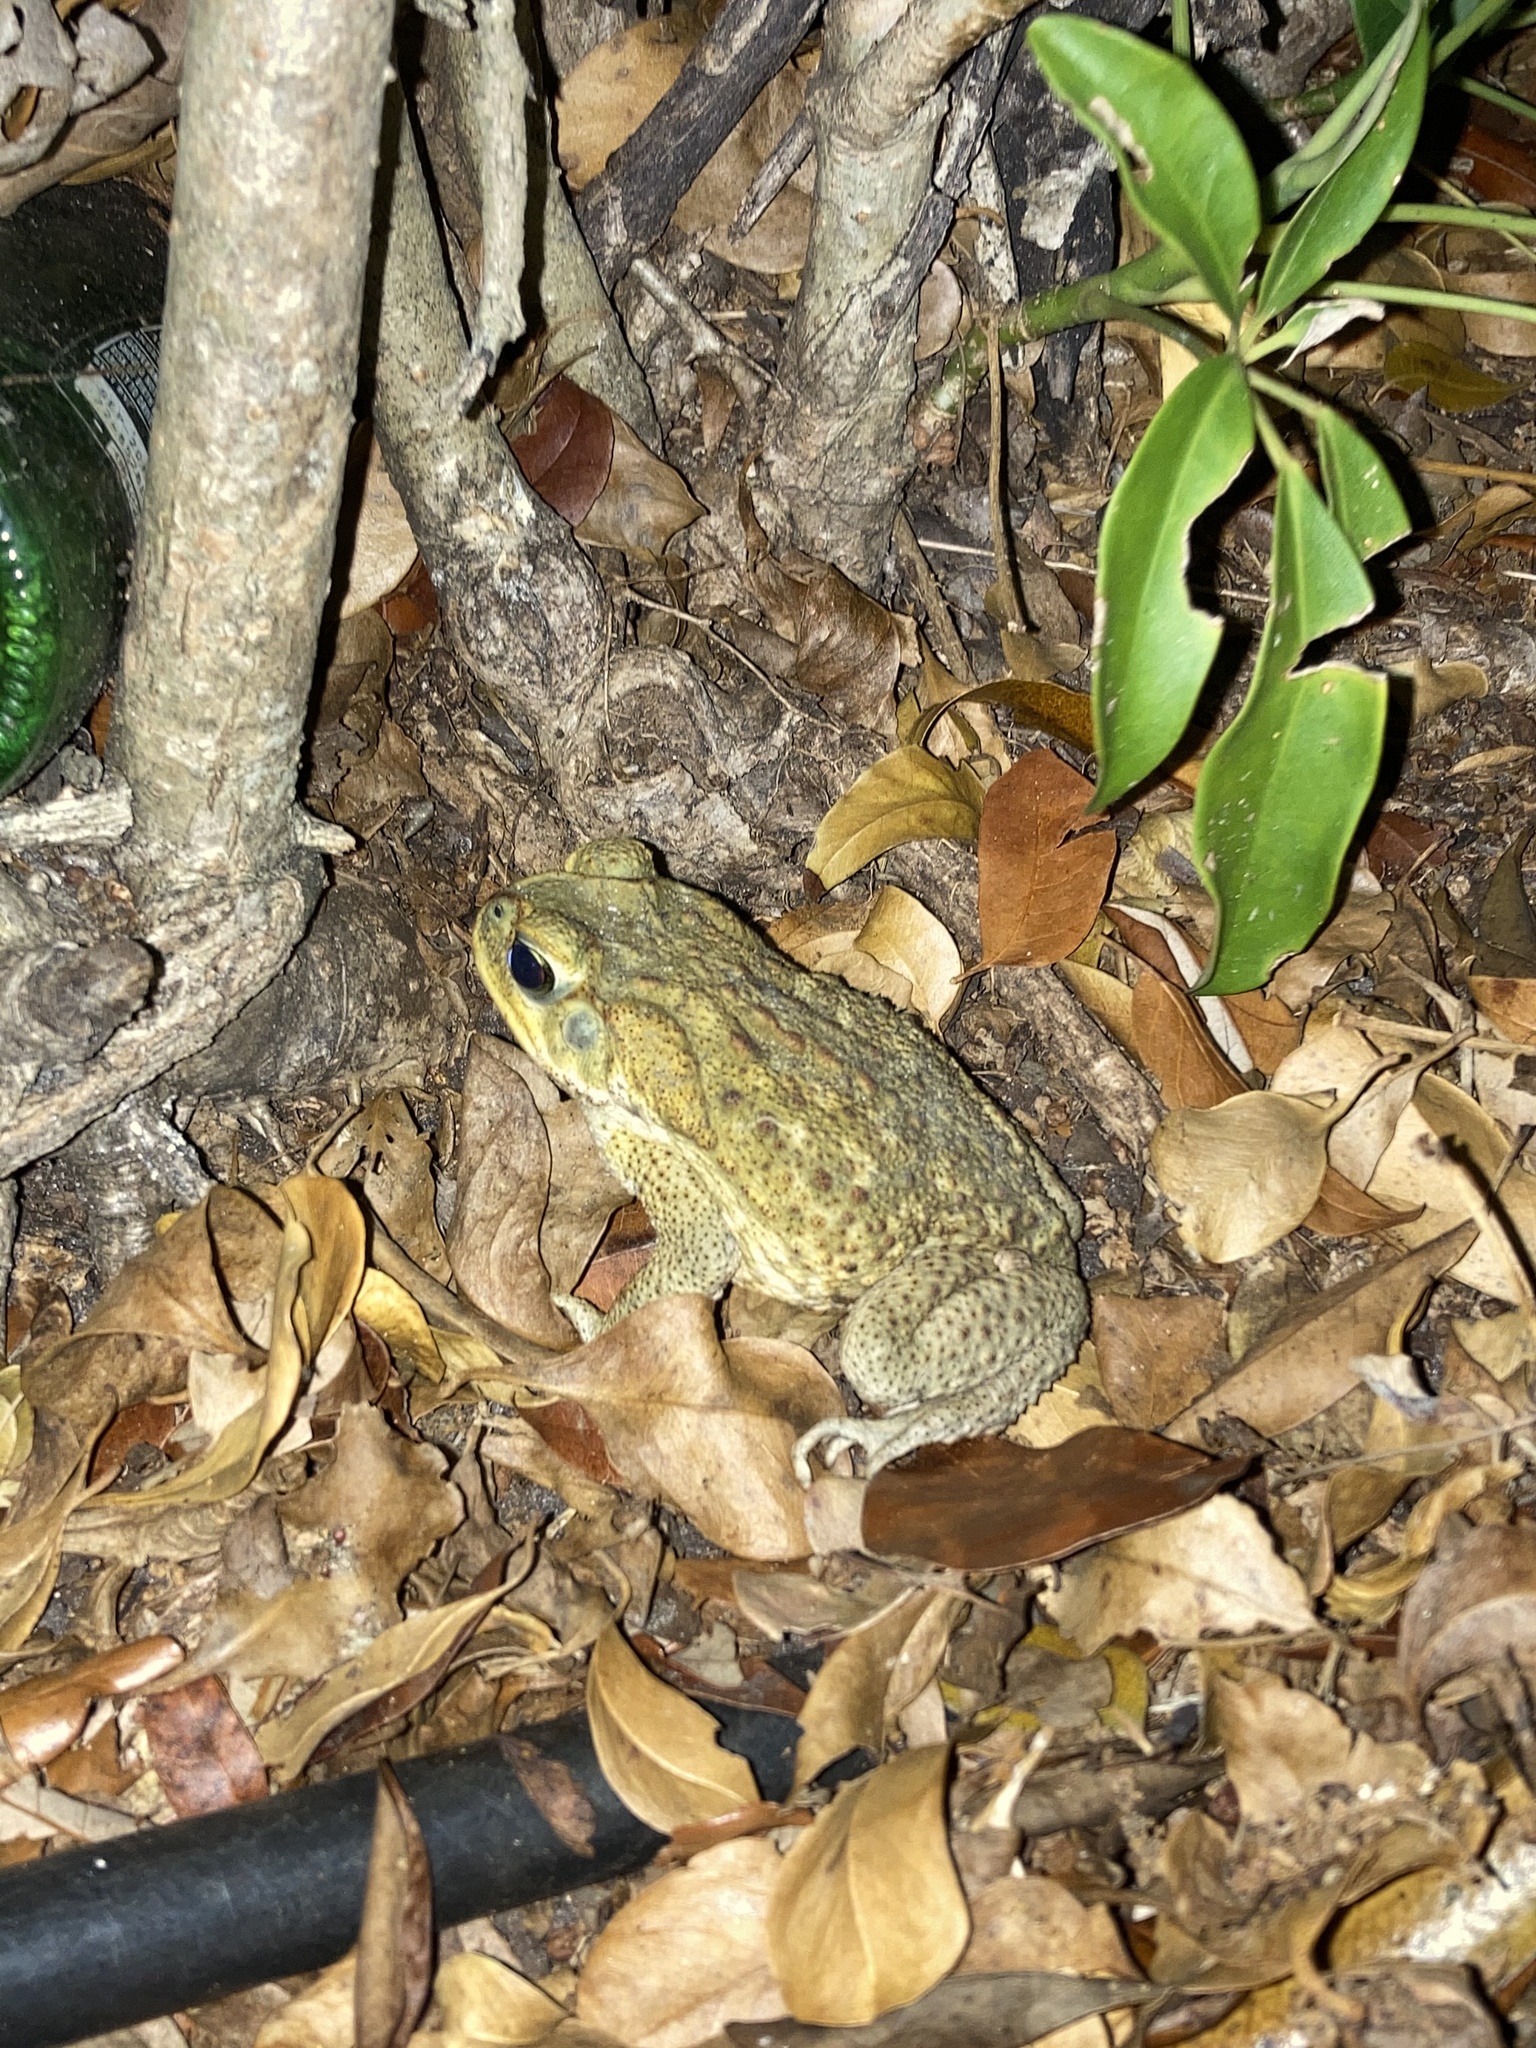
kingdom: Animalia
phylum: Chordata
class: Amphibia
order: Anura
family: Bufonidae
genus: Rhinella
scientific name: Rhinella marina
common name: Cane toad
